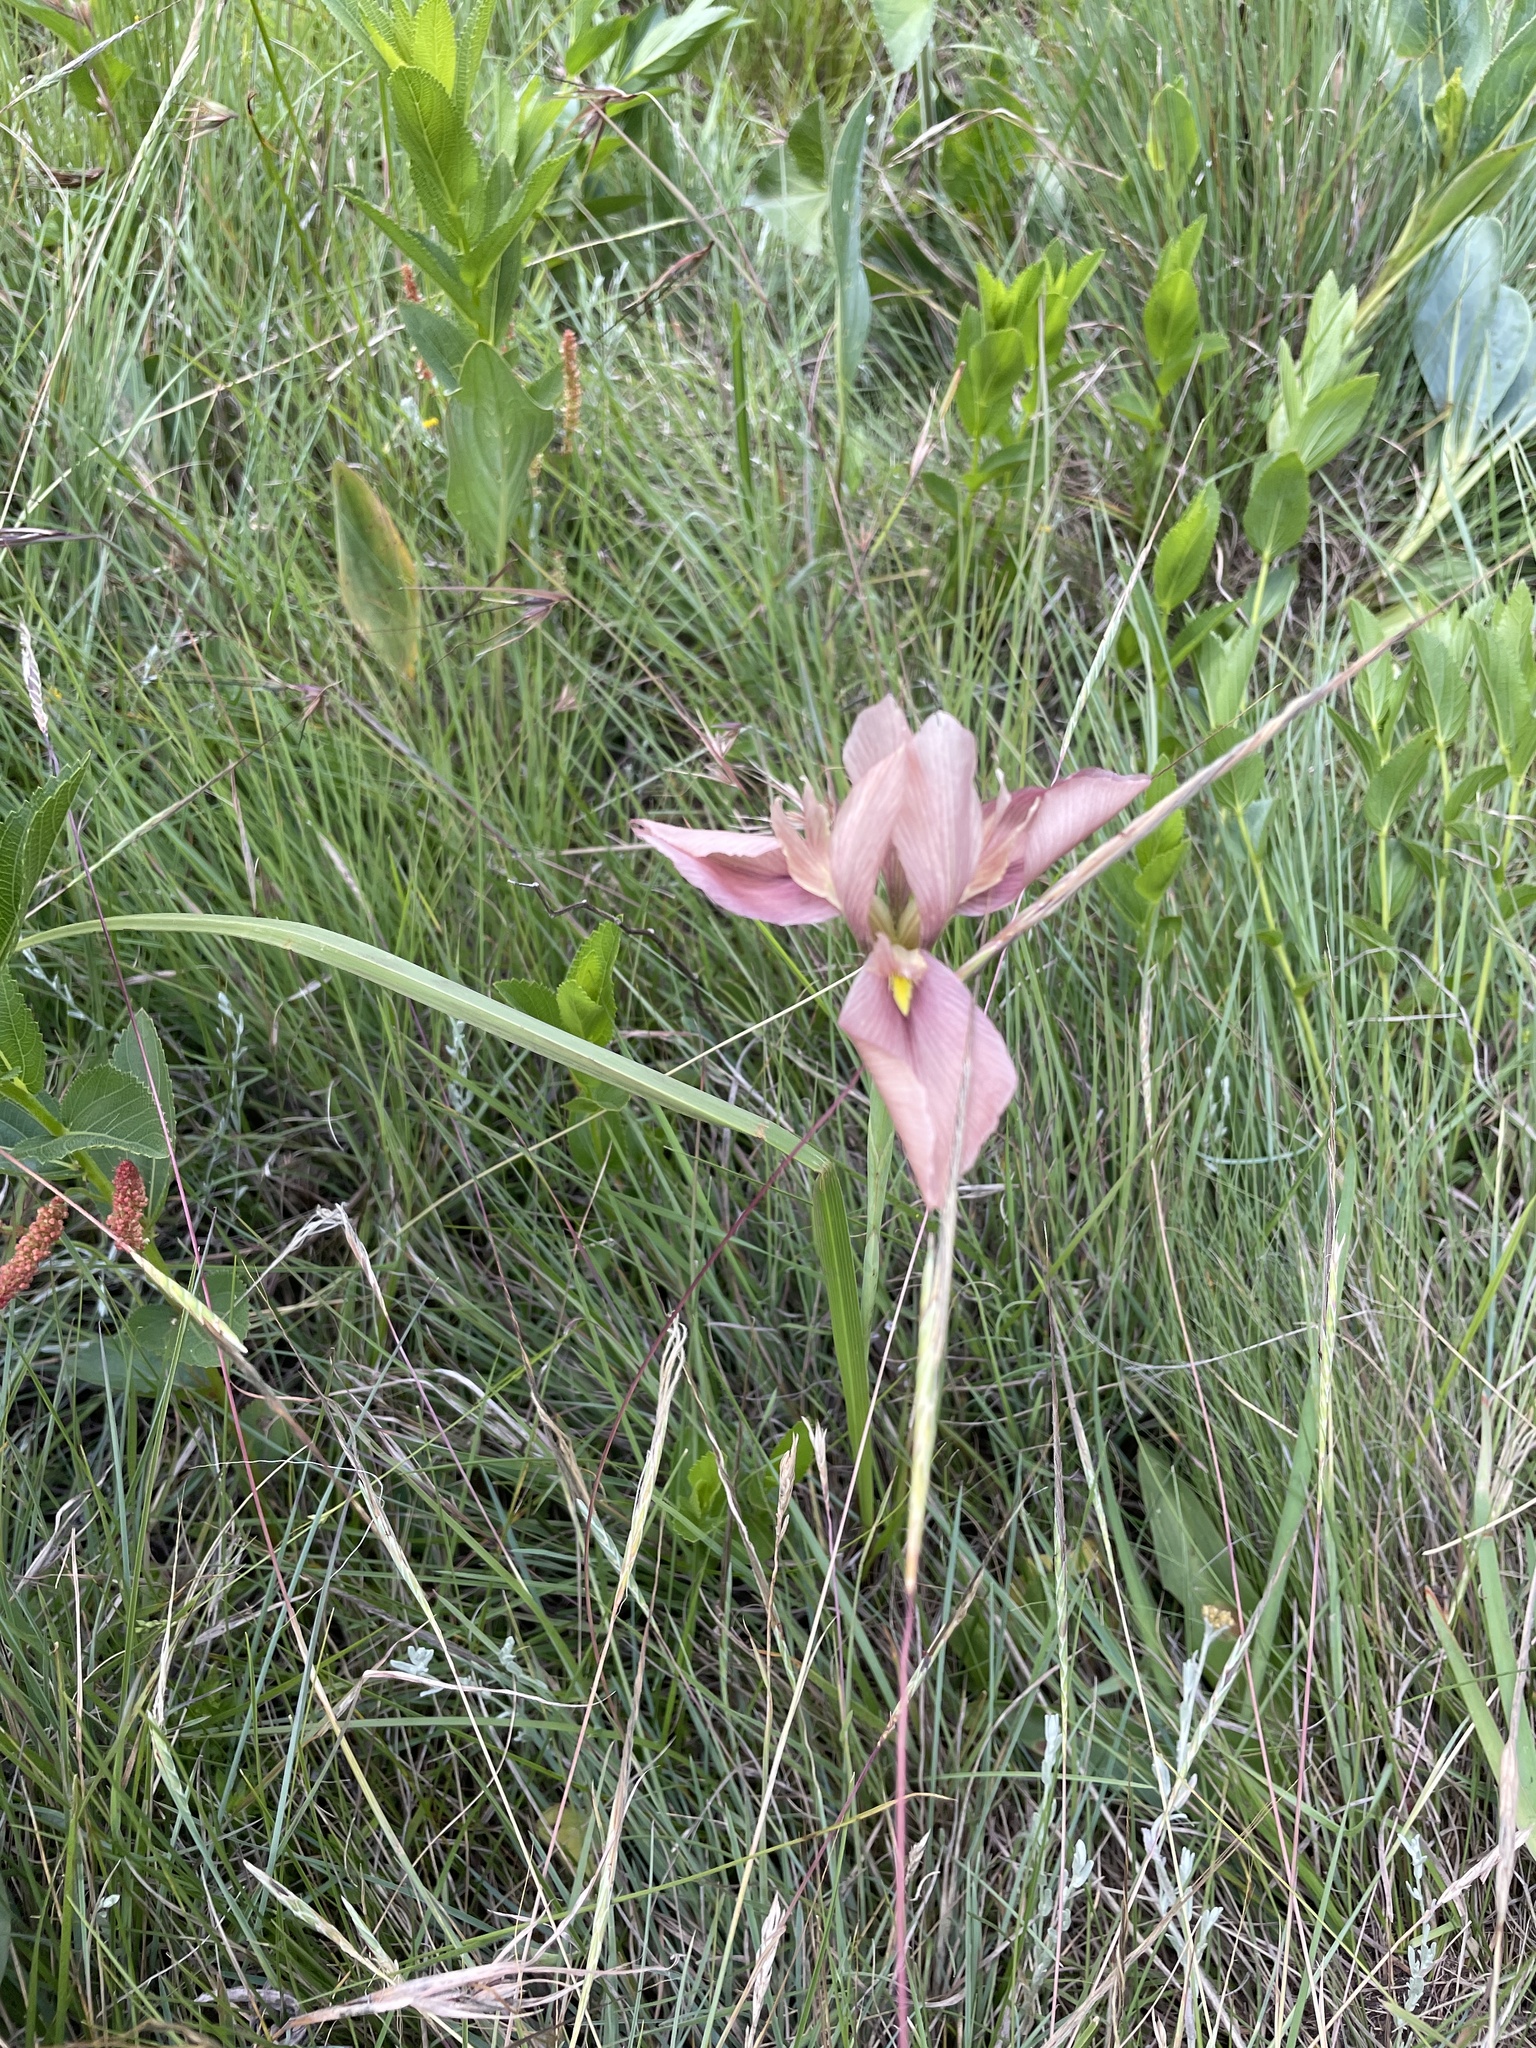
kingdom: Plantae
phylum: Tracheophyta
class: Liliopsida
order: Asparagales
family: Iridaceae
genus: Moraea
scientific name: Moraea ardesiaca
